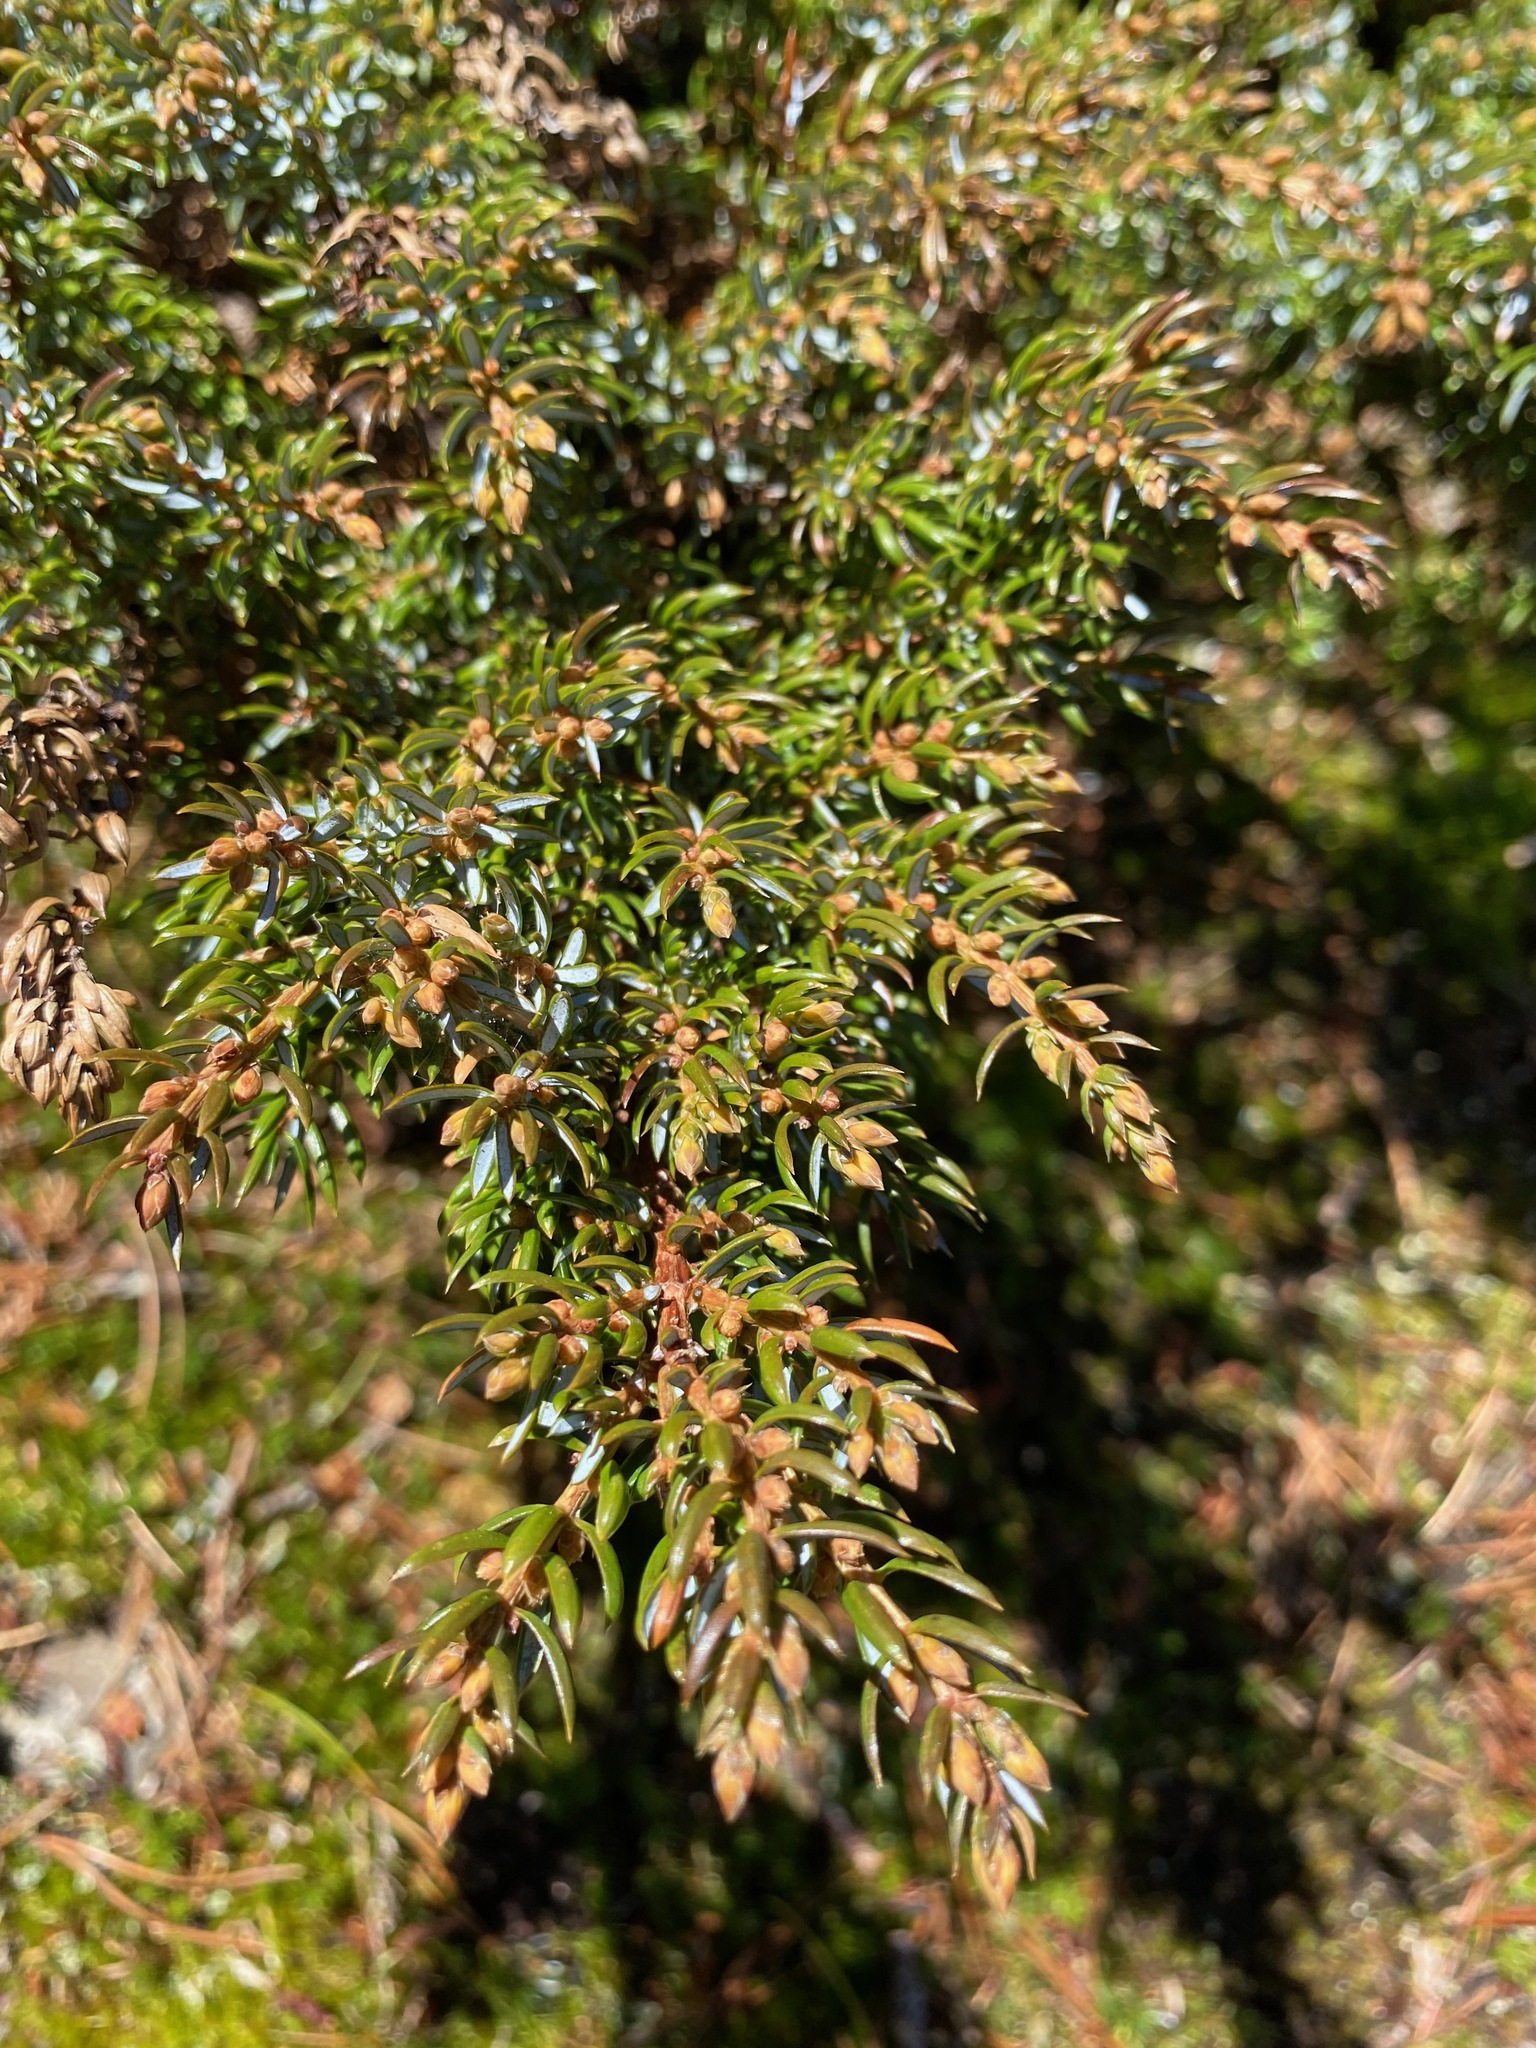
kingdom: Plantae
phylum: Tracheophyta
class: Pinopsida
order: Pinales
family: Cupressaceae
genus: Juniperus
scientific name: Juniperus communis
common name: Common juniper
